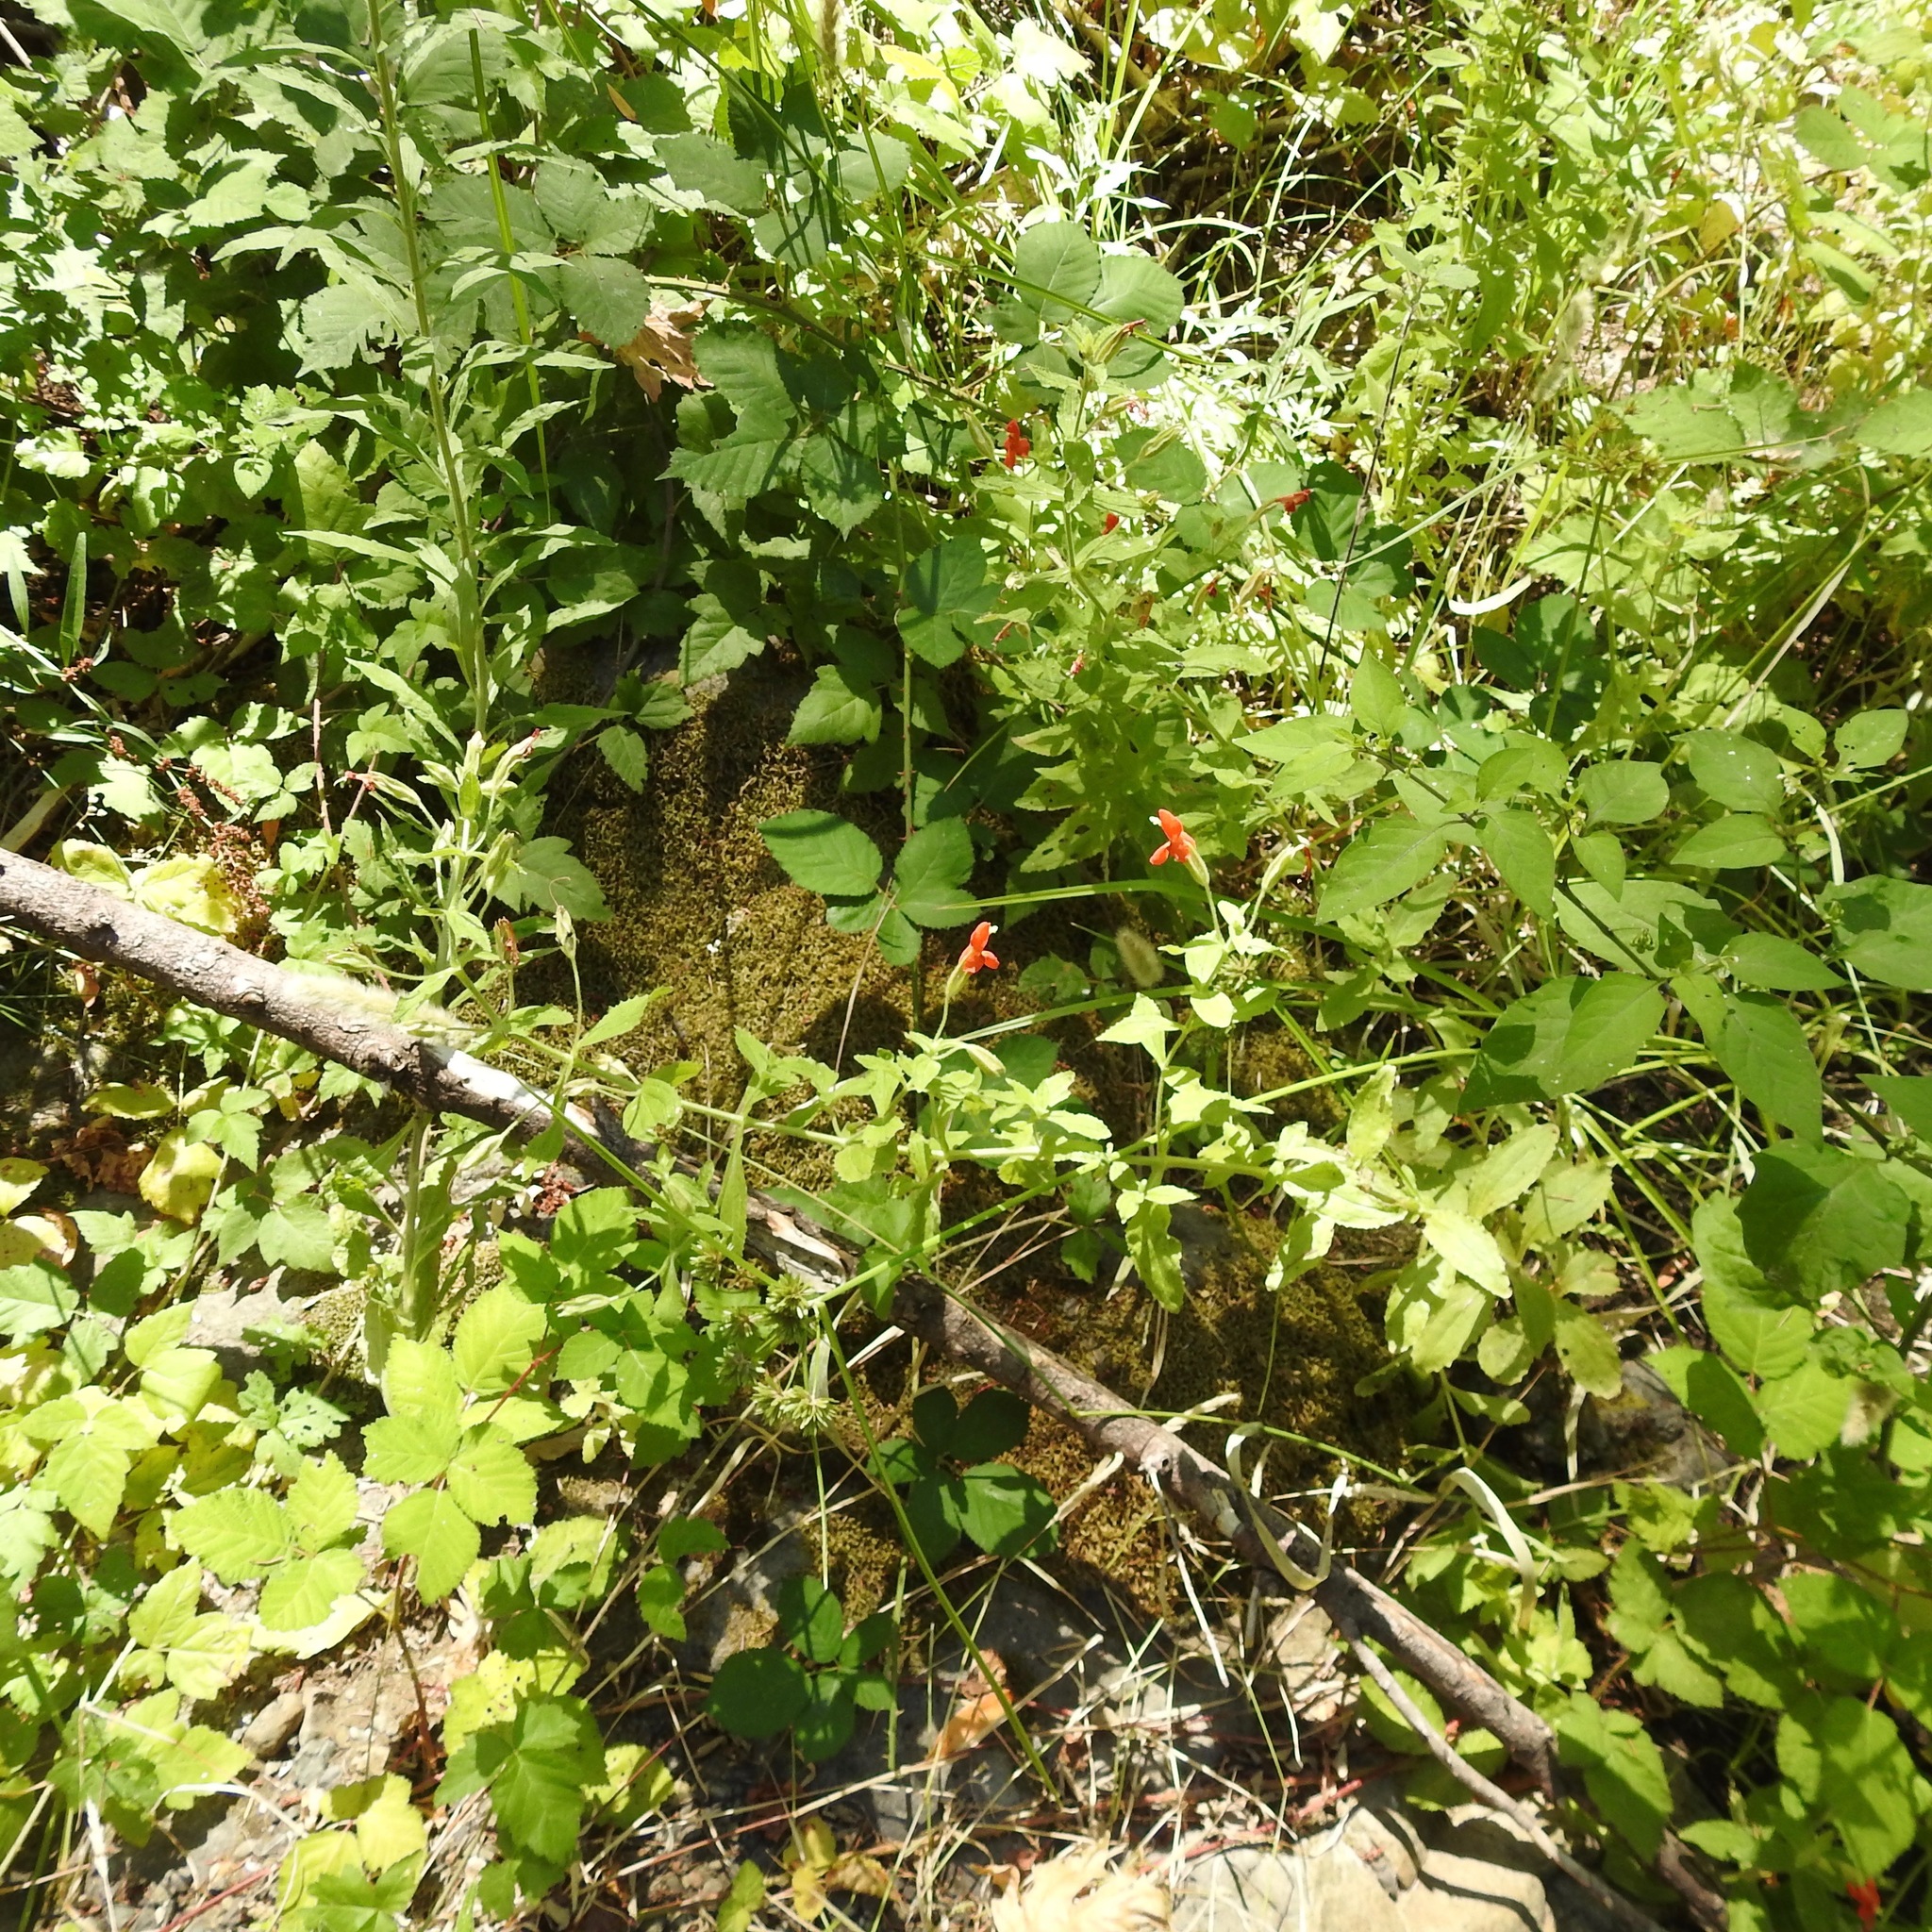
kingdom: Plantae
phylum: Tracheophyta
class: Magnoliopsida
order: Lamiales
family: Phrymaceae
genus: Erythranthe
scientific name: Erythranthe cardinalis
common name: Scarlet monkey-flower
